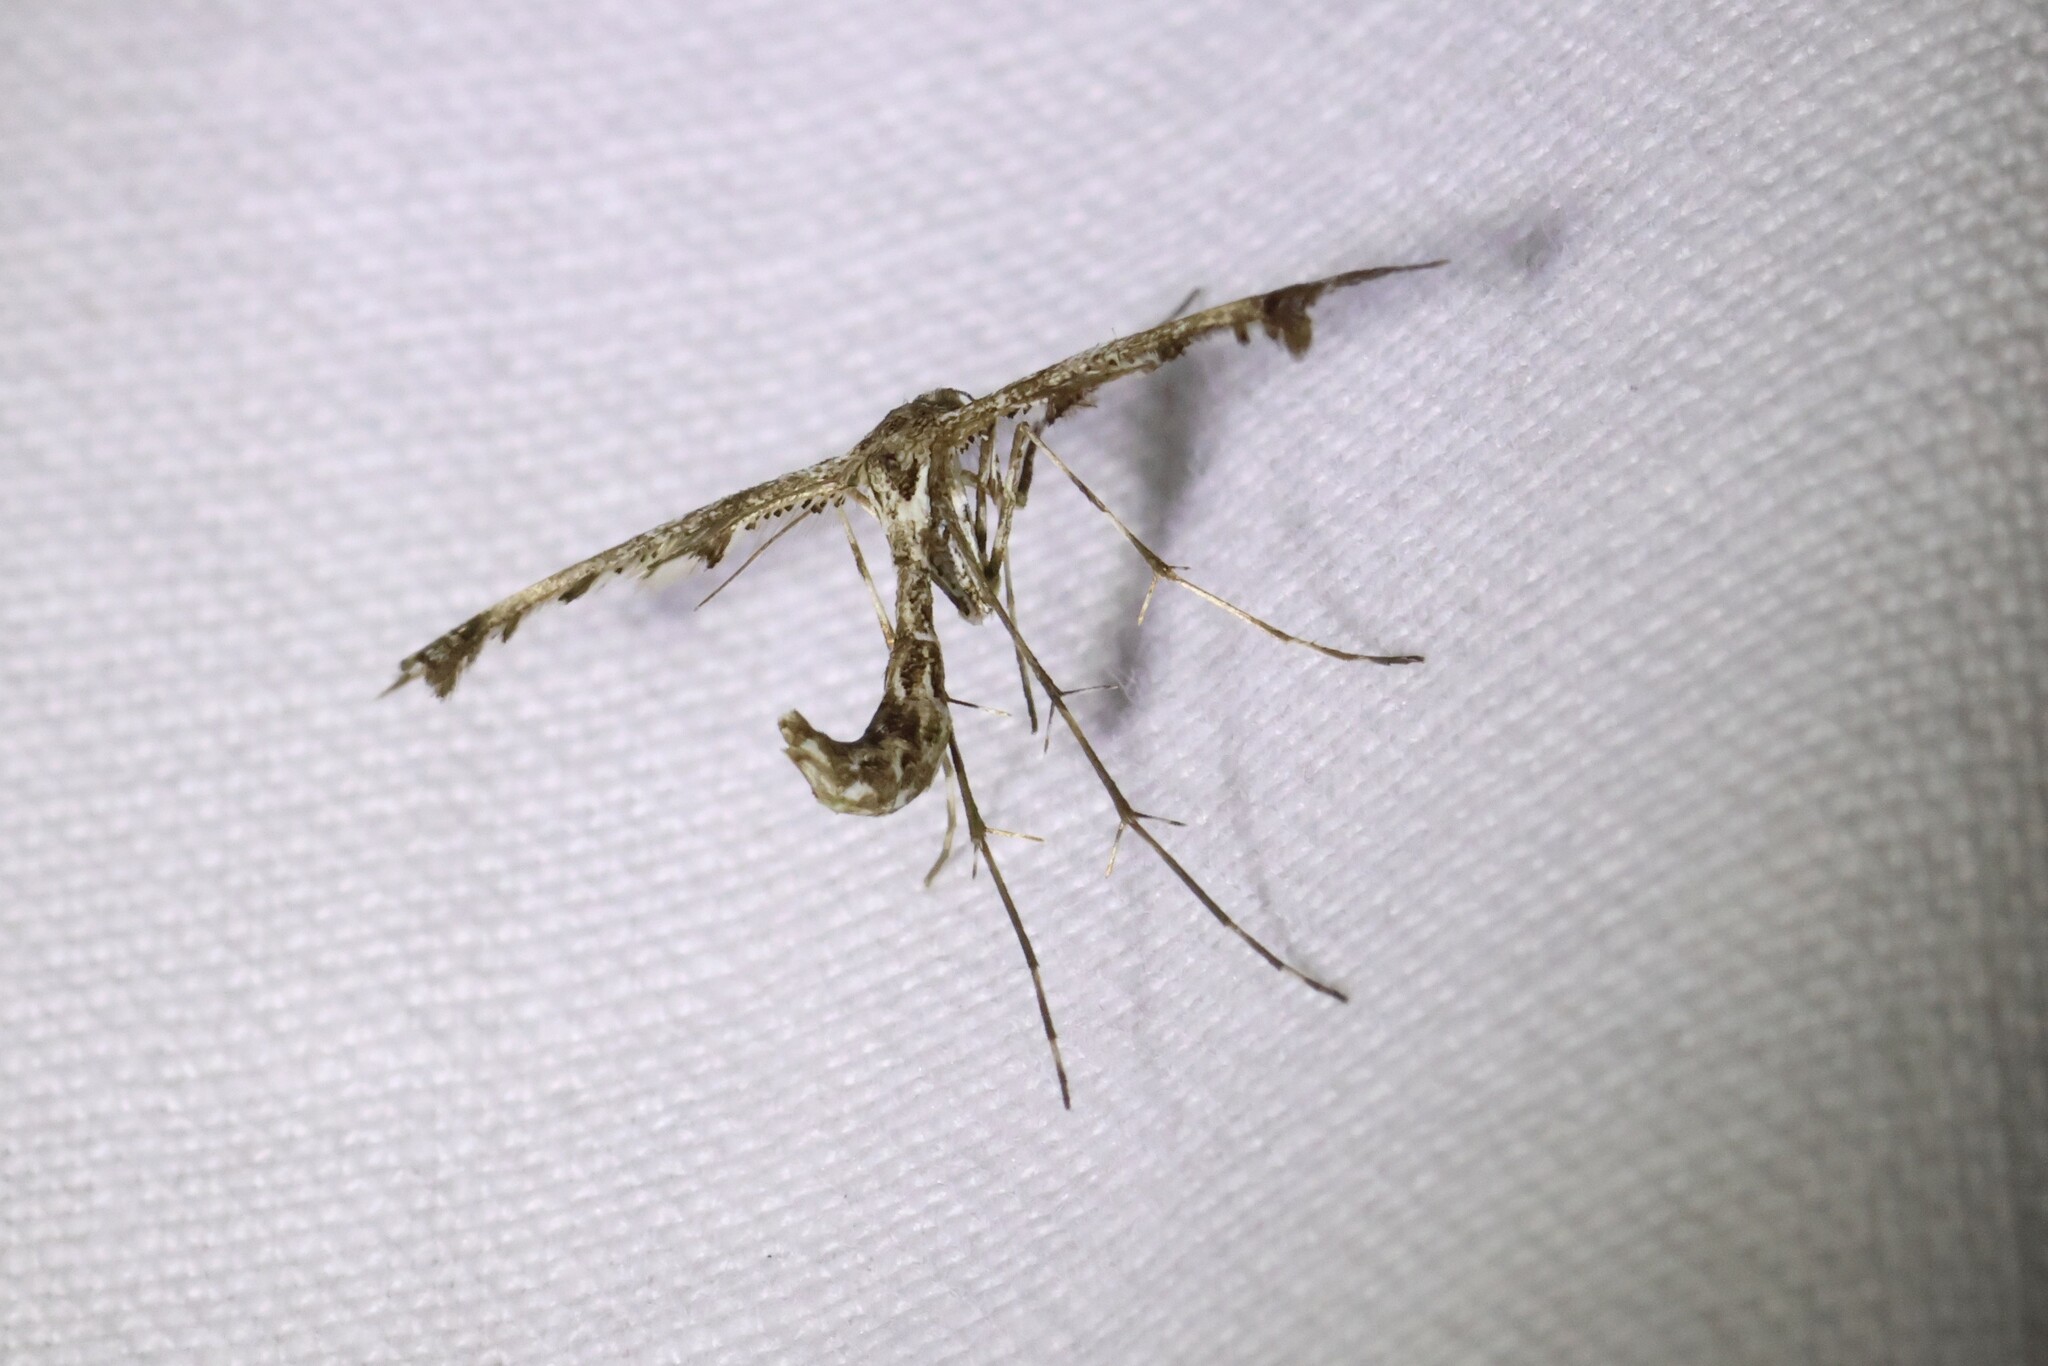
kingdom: Animalia
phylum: Arthropoda
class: Insecta
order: Lepidoptera
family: Pterophoridae
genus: Amblyptilia
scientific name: Amblyptilia pica
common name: Geranium plume moth
